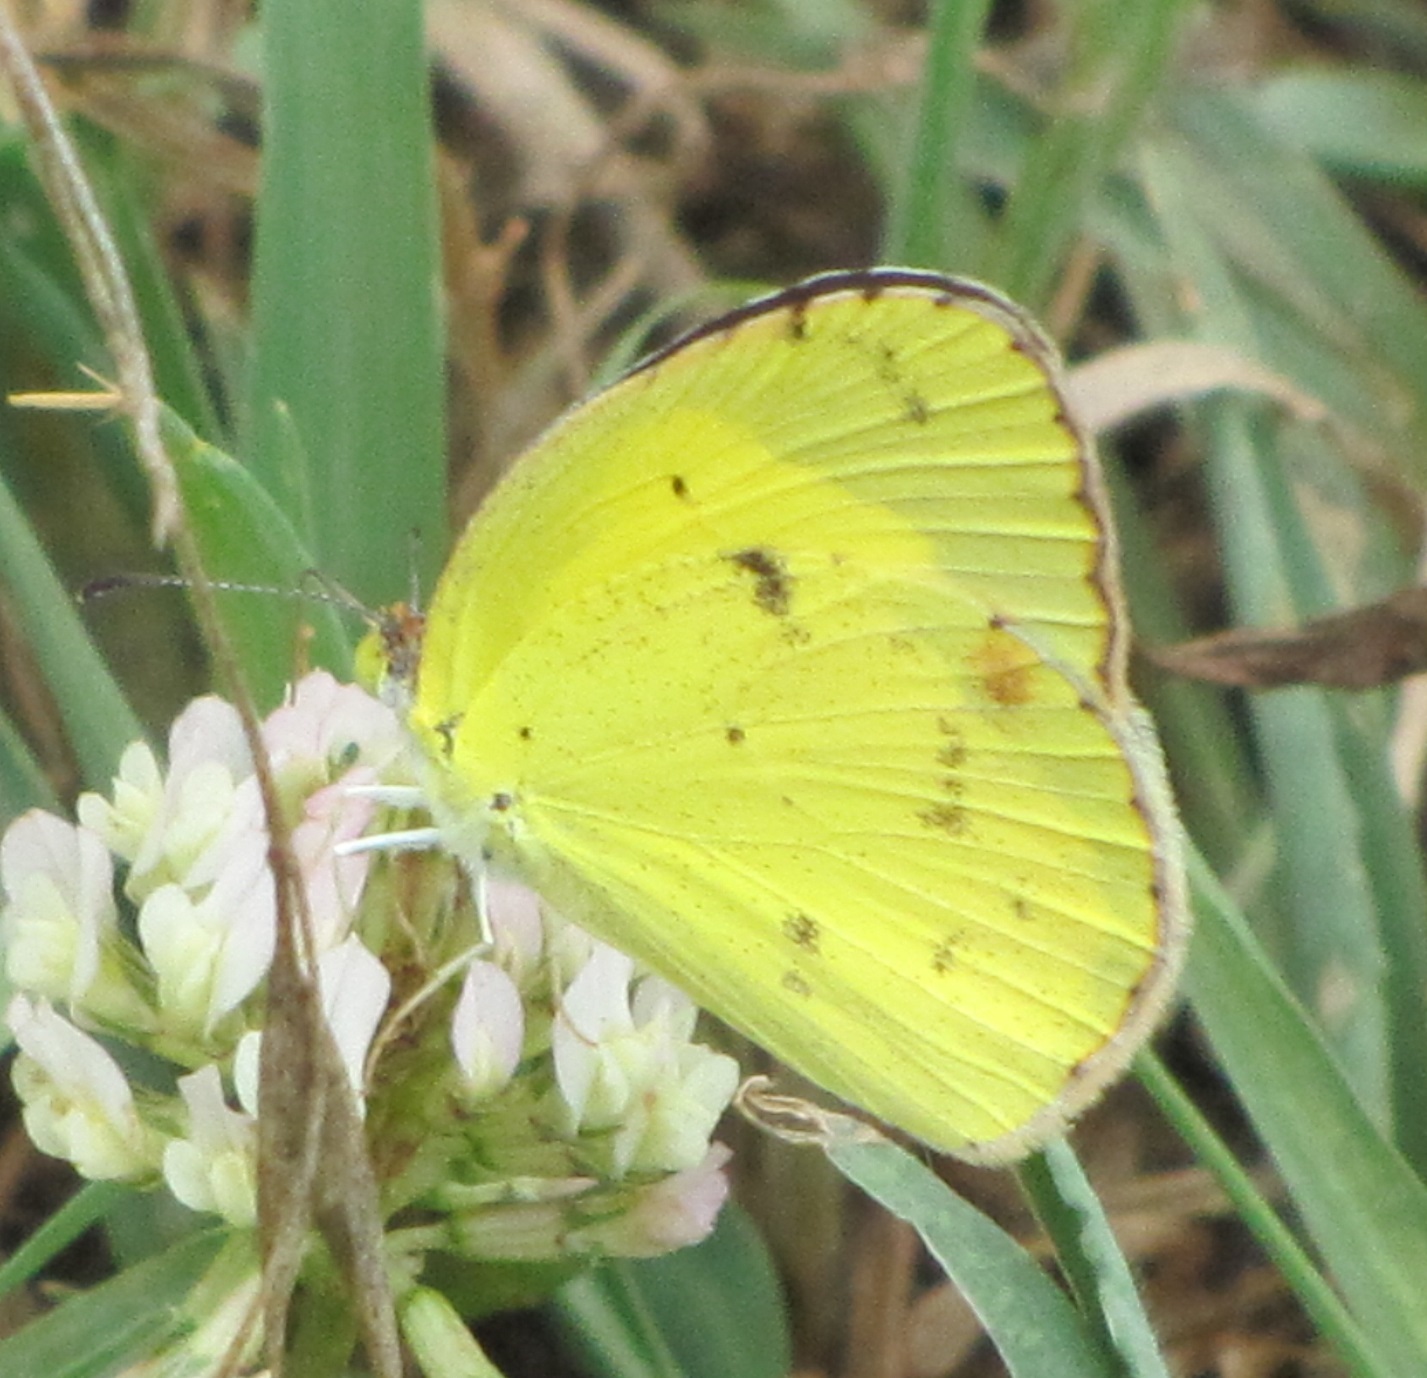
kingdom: Animalia
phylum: Arthropoda
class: Insecta
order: Lepidoptera
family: Pieridae
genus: Pyrisitia
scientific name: Pyrisitia lisa
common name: Little yellow
